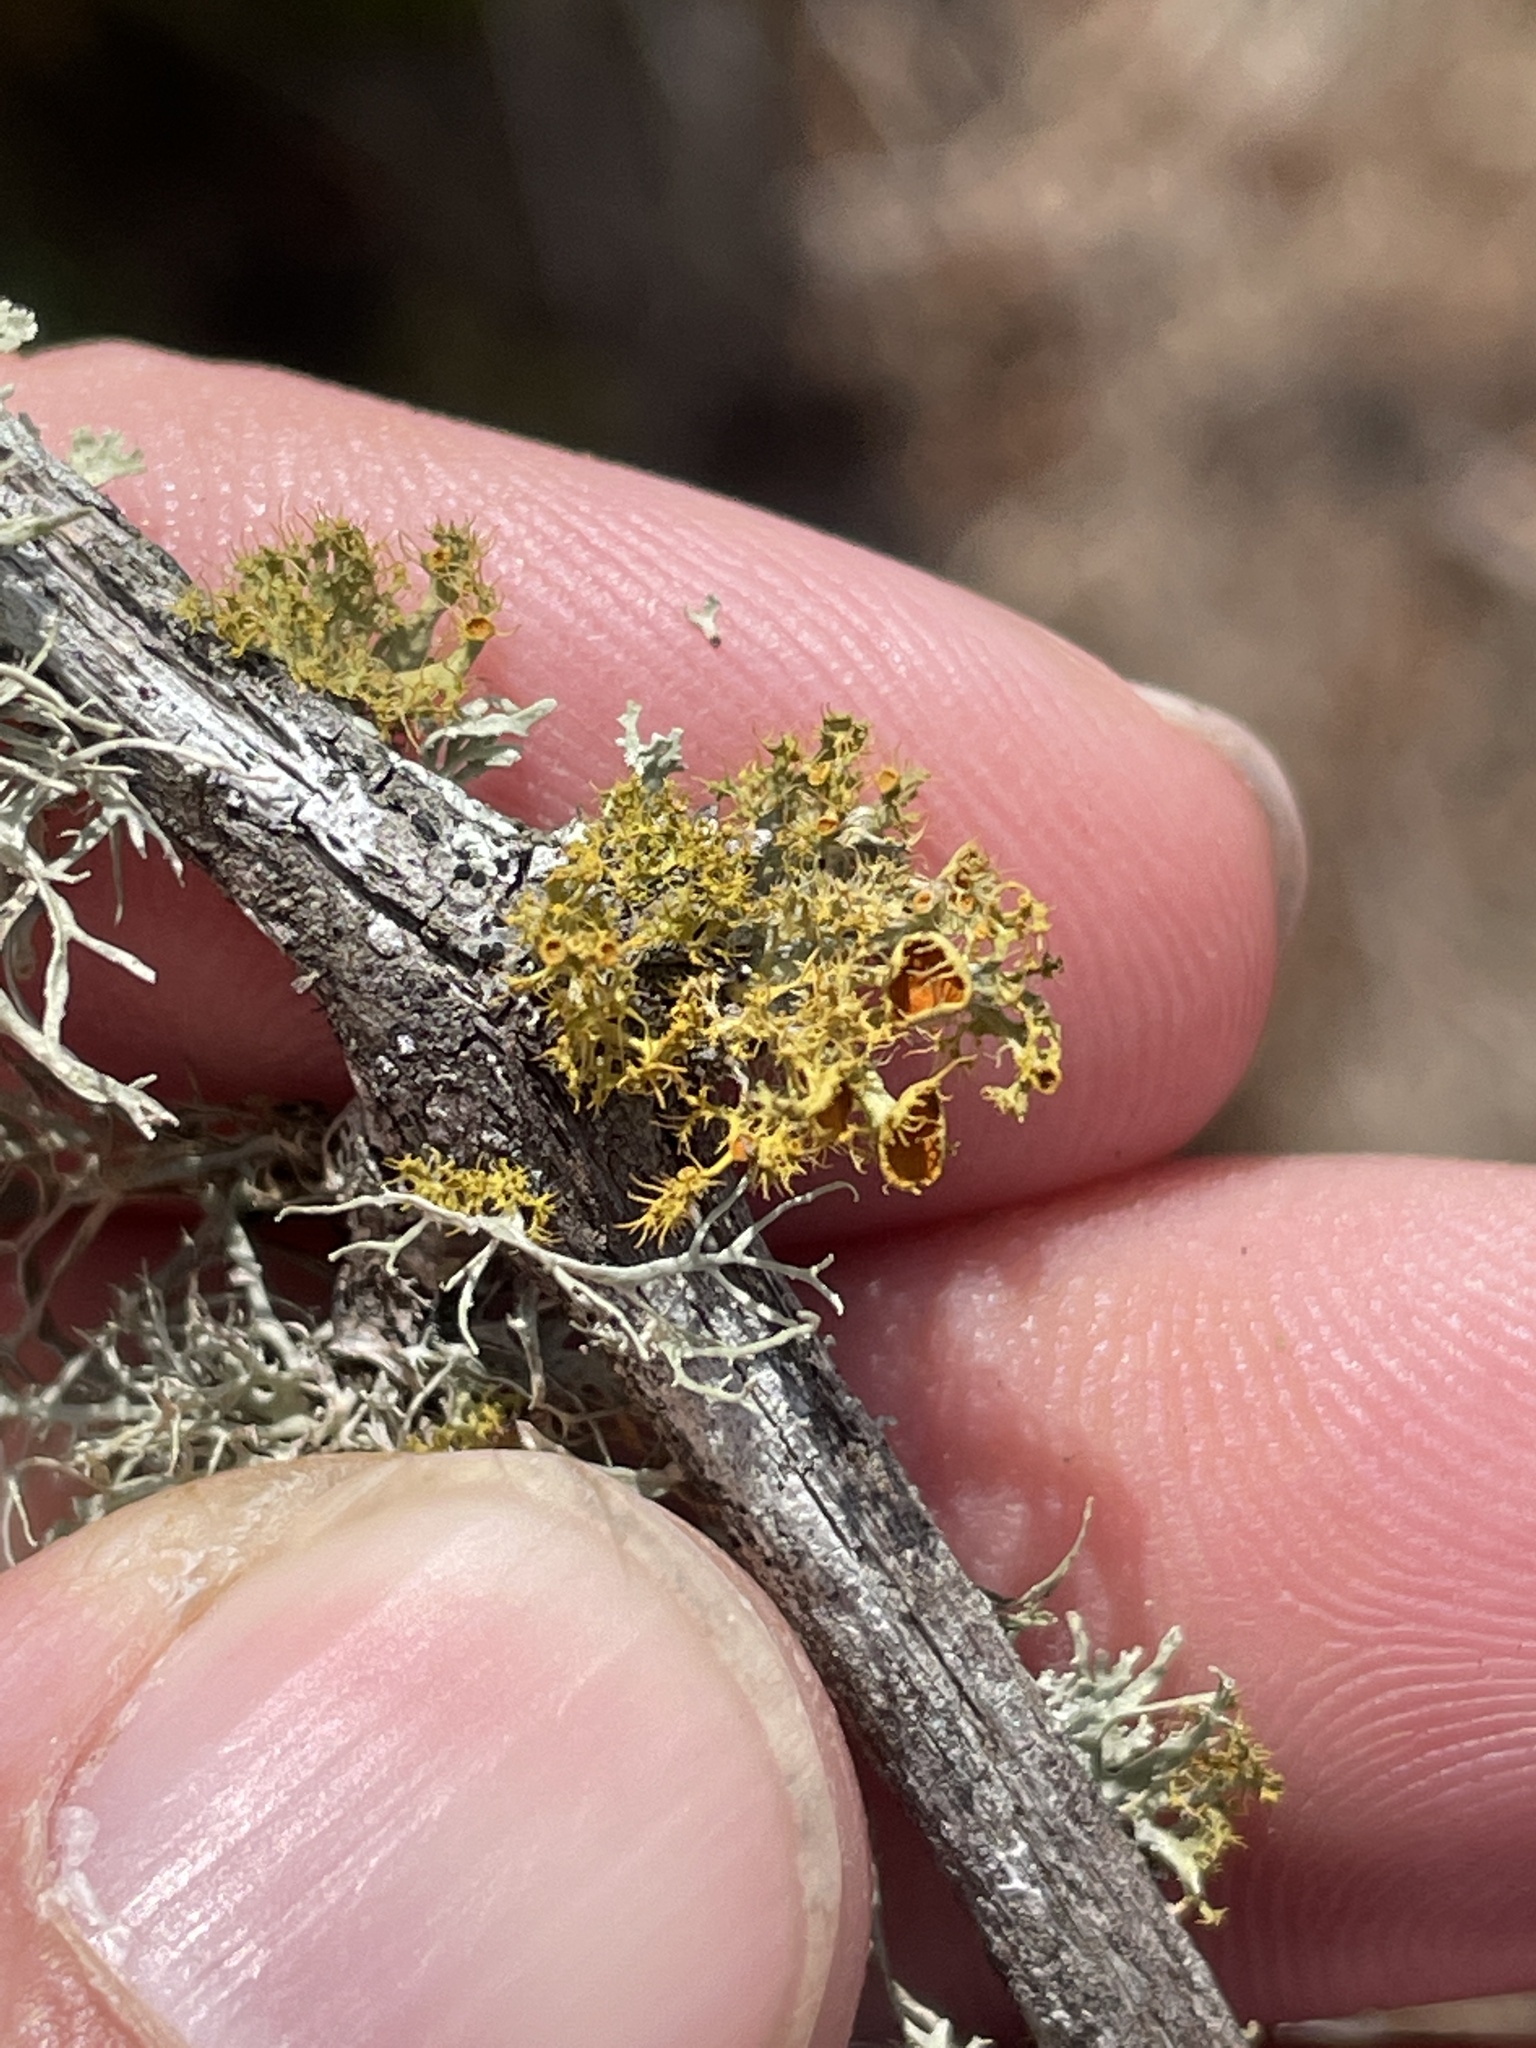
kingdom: Fungi
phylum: Ascomycota
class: Lecanoromycetes
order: Teloschistales
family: Teloschistaceae
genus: Niorma
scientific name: Niorma chrysophthalma
